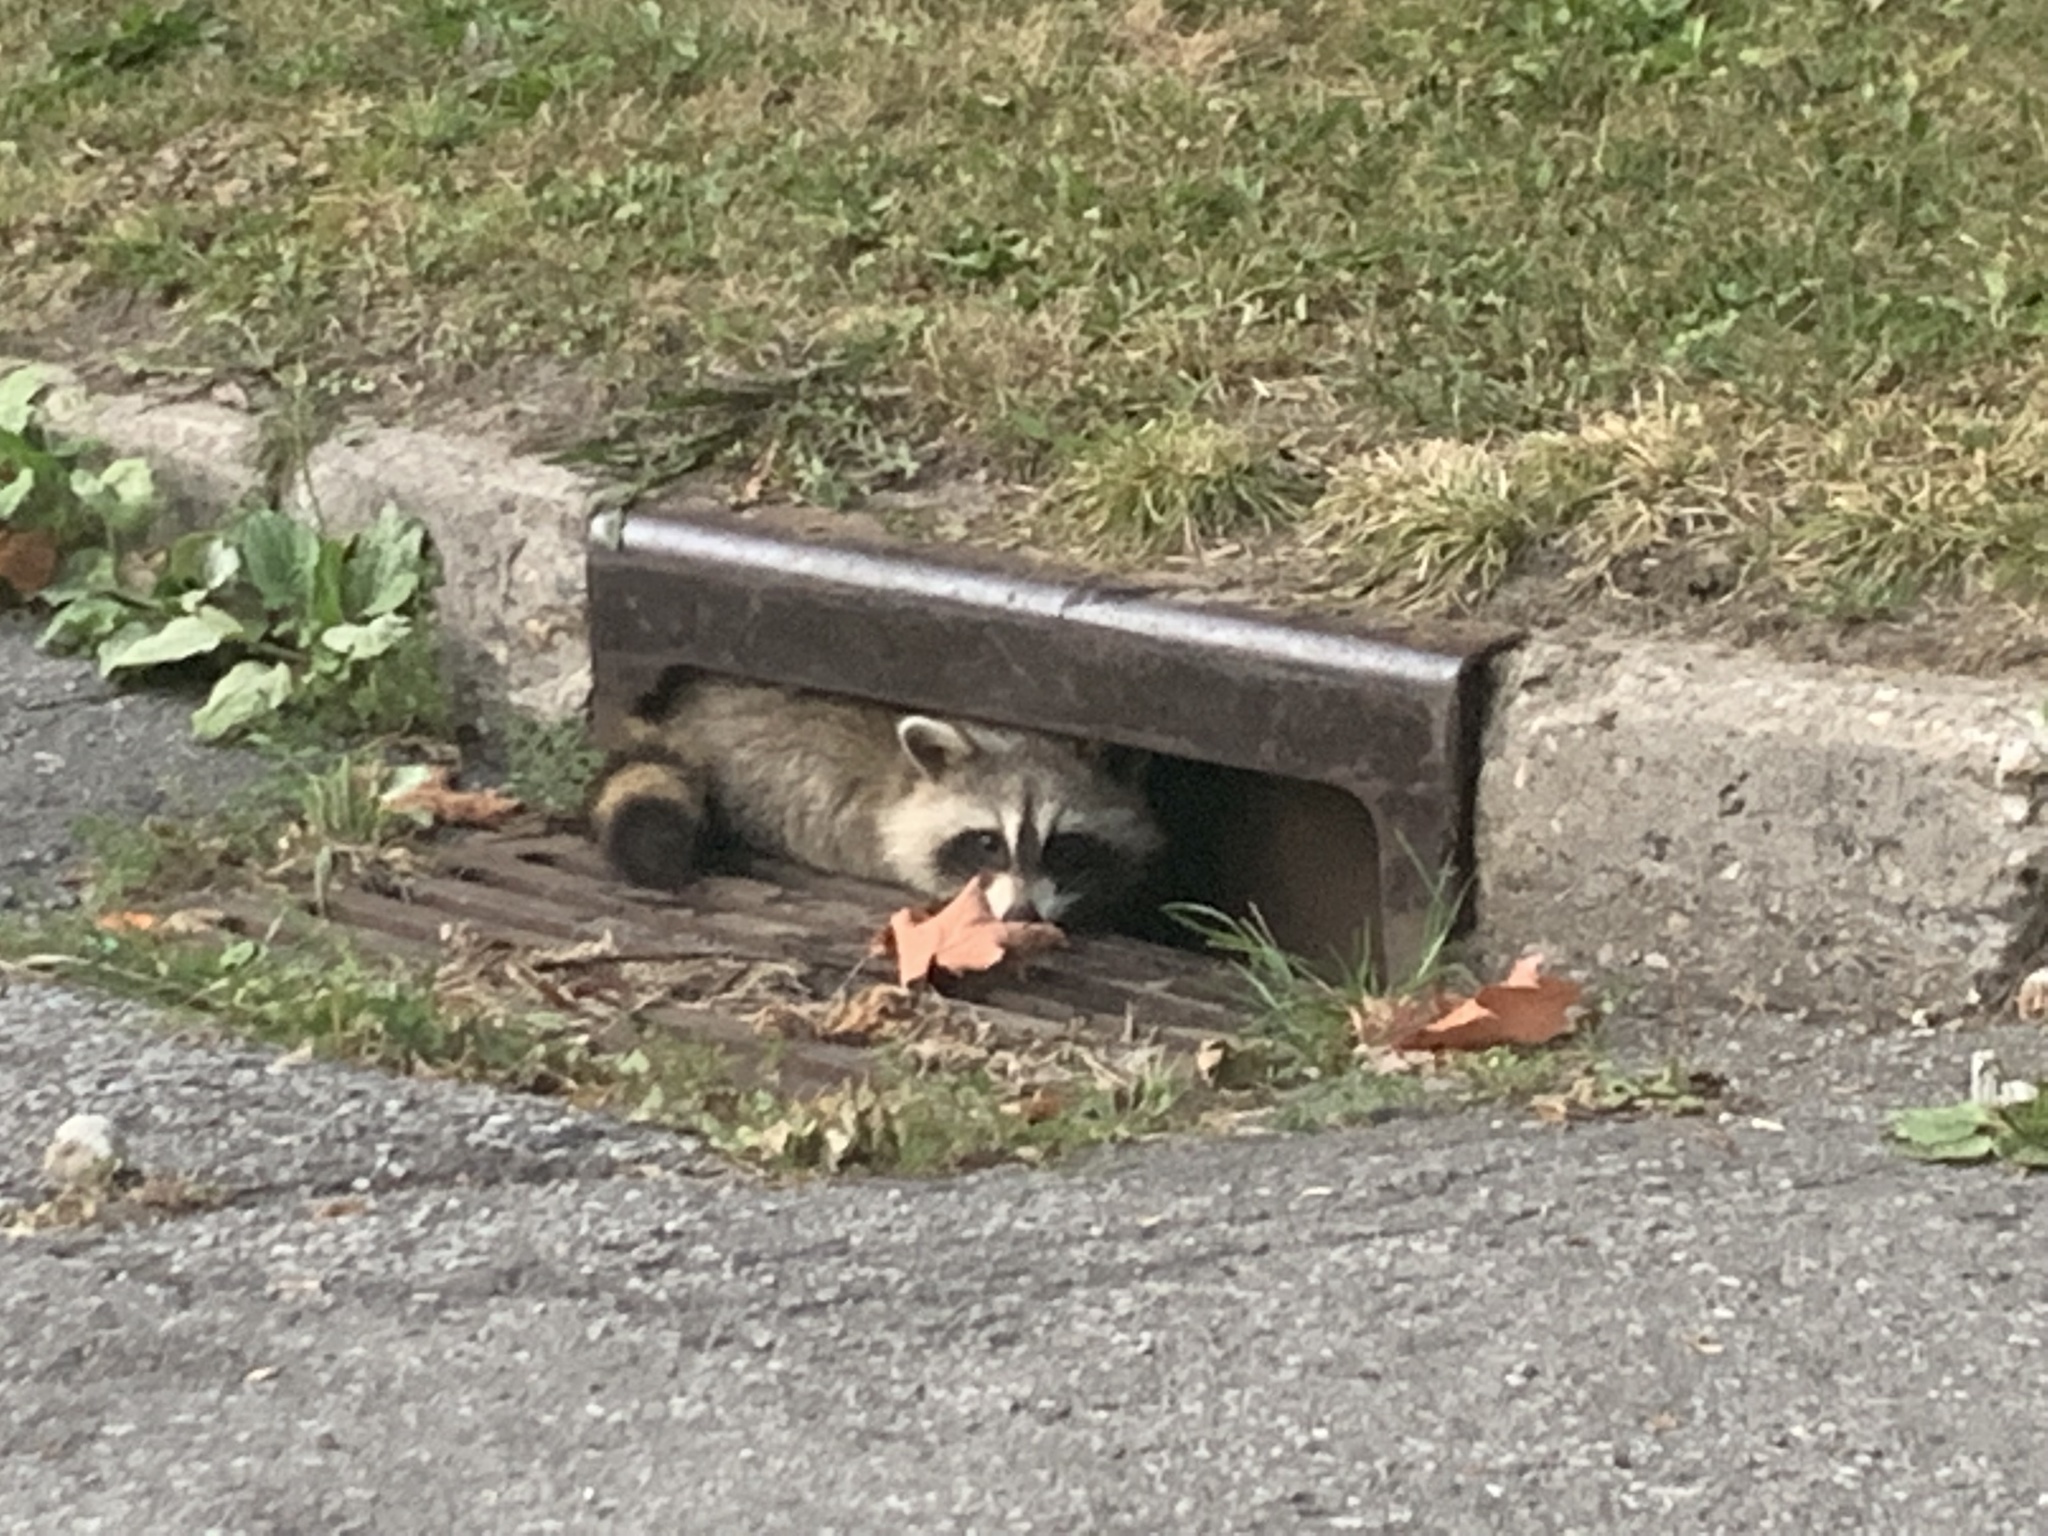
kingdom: Animalia
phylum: Chordata
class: Mammalia
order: Carnivora
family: Procyonidae
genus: Procyon
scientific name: Procyon lotor
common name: Raccoon
